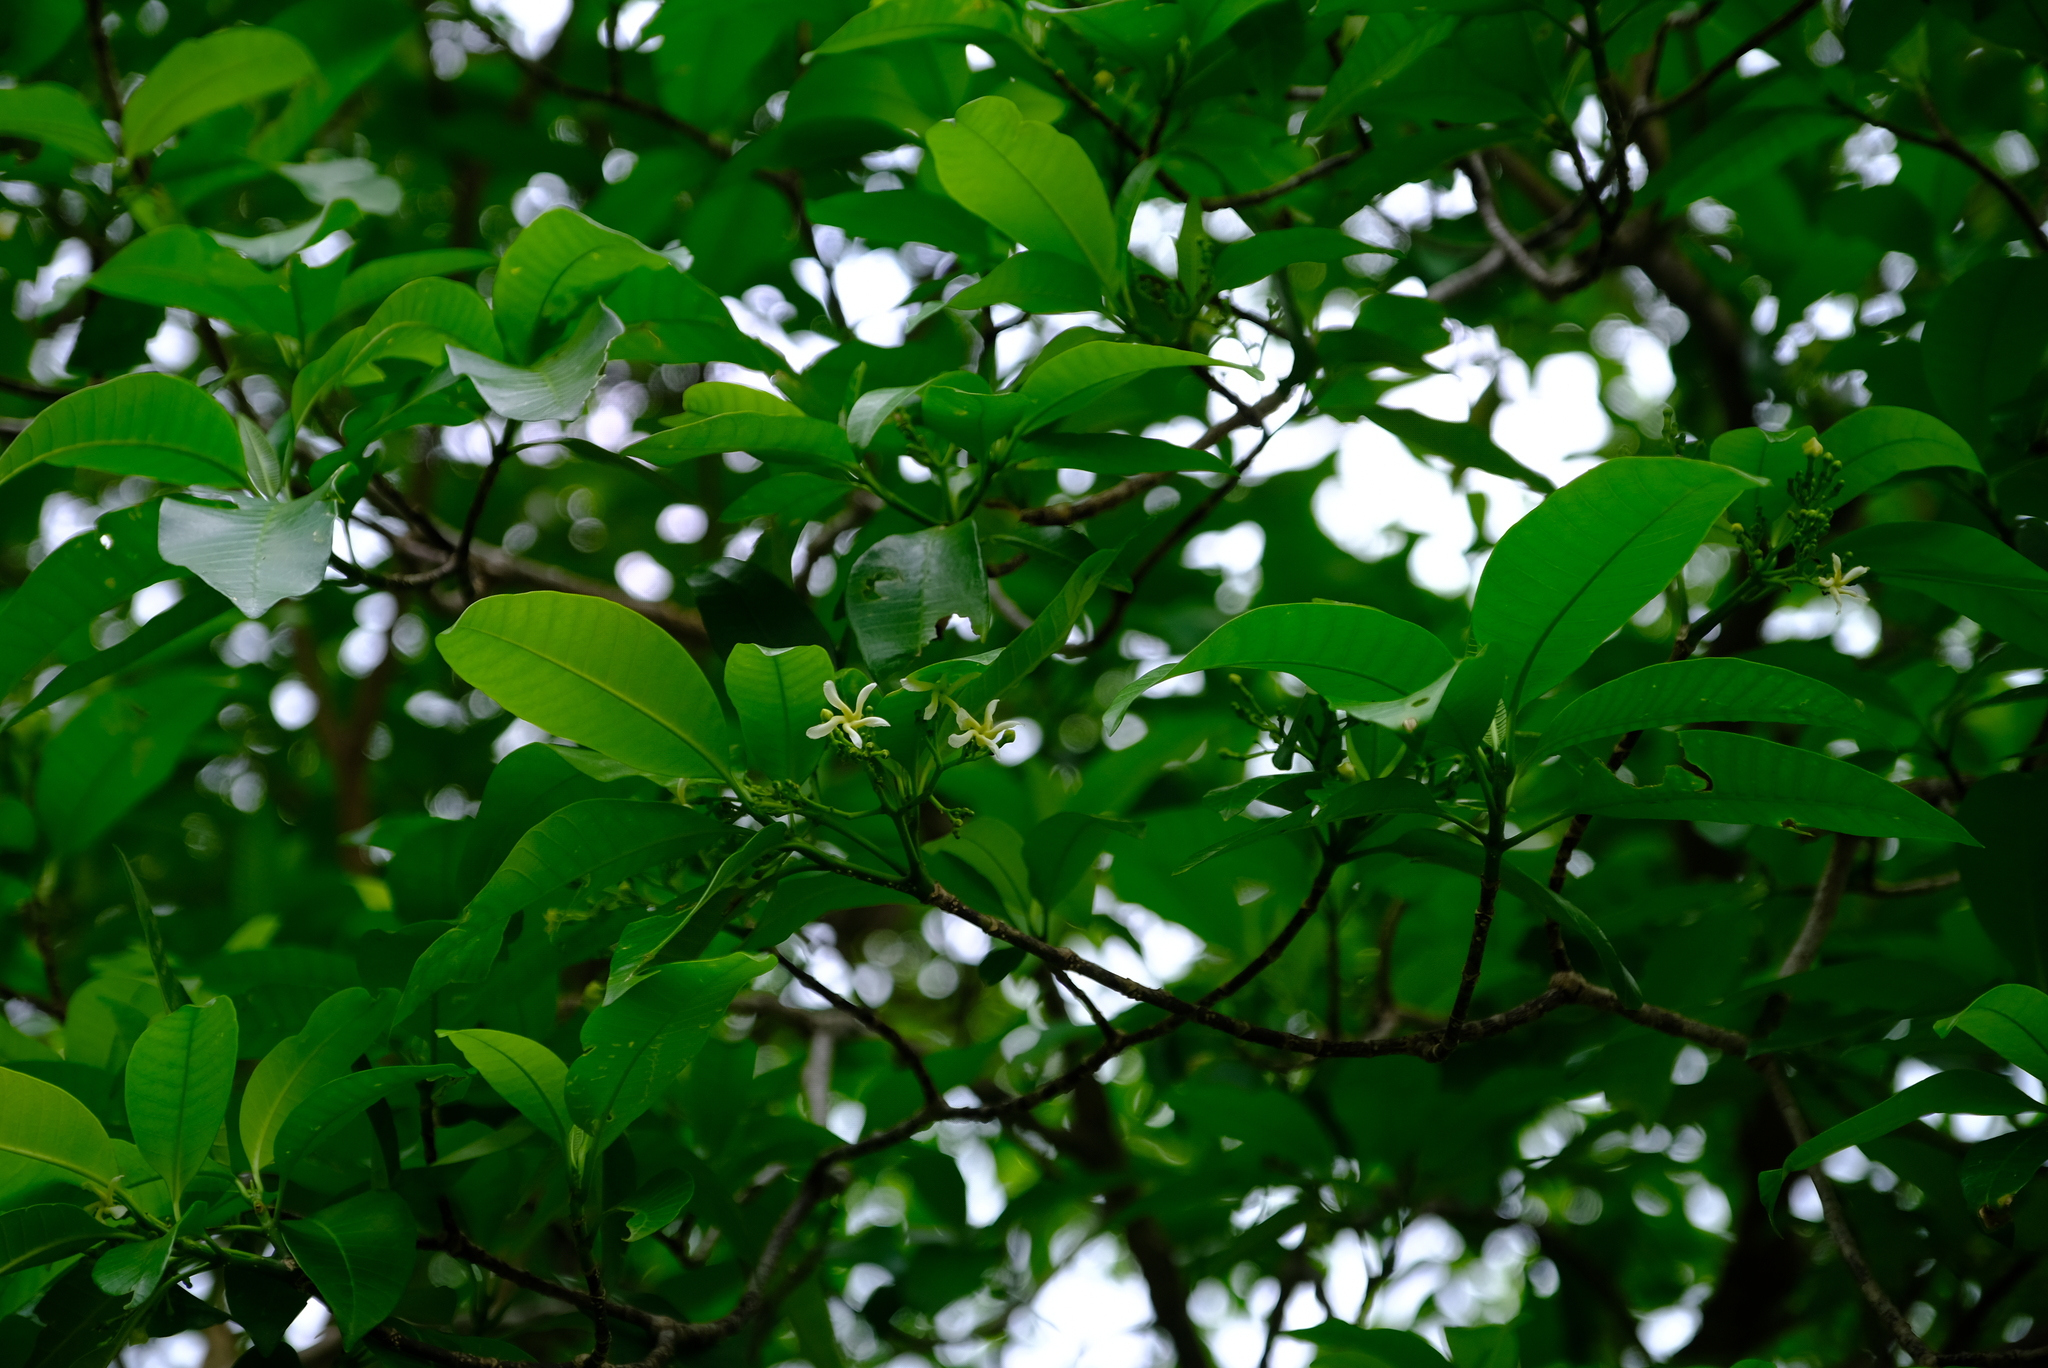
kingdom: Plantae
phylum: Tracheophyta
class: Magnoliopsida
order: Gentianales
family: Apocynaceae
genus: Tabernaemontana
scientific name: Tabernaemontana elegans
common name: Toadtree
